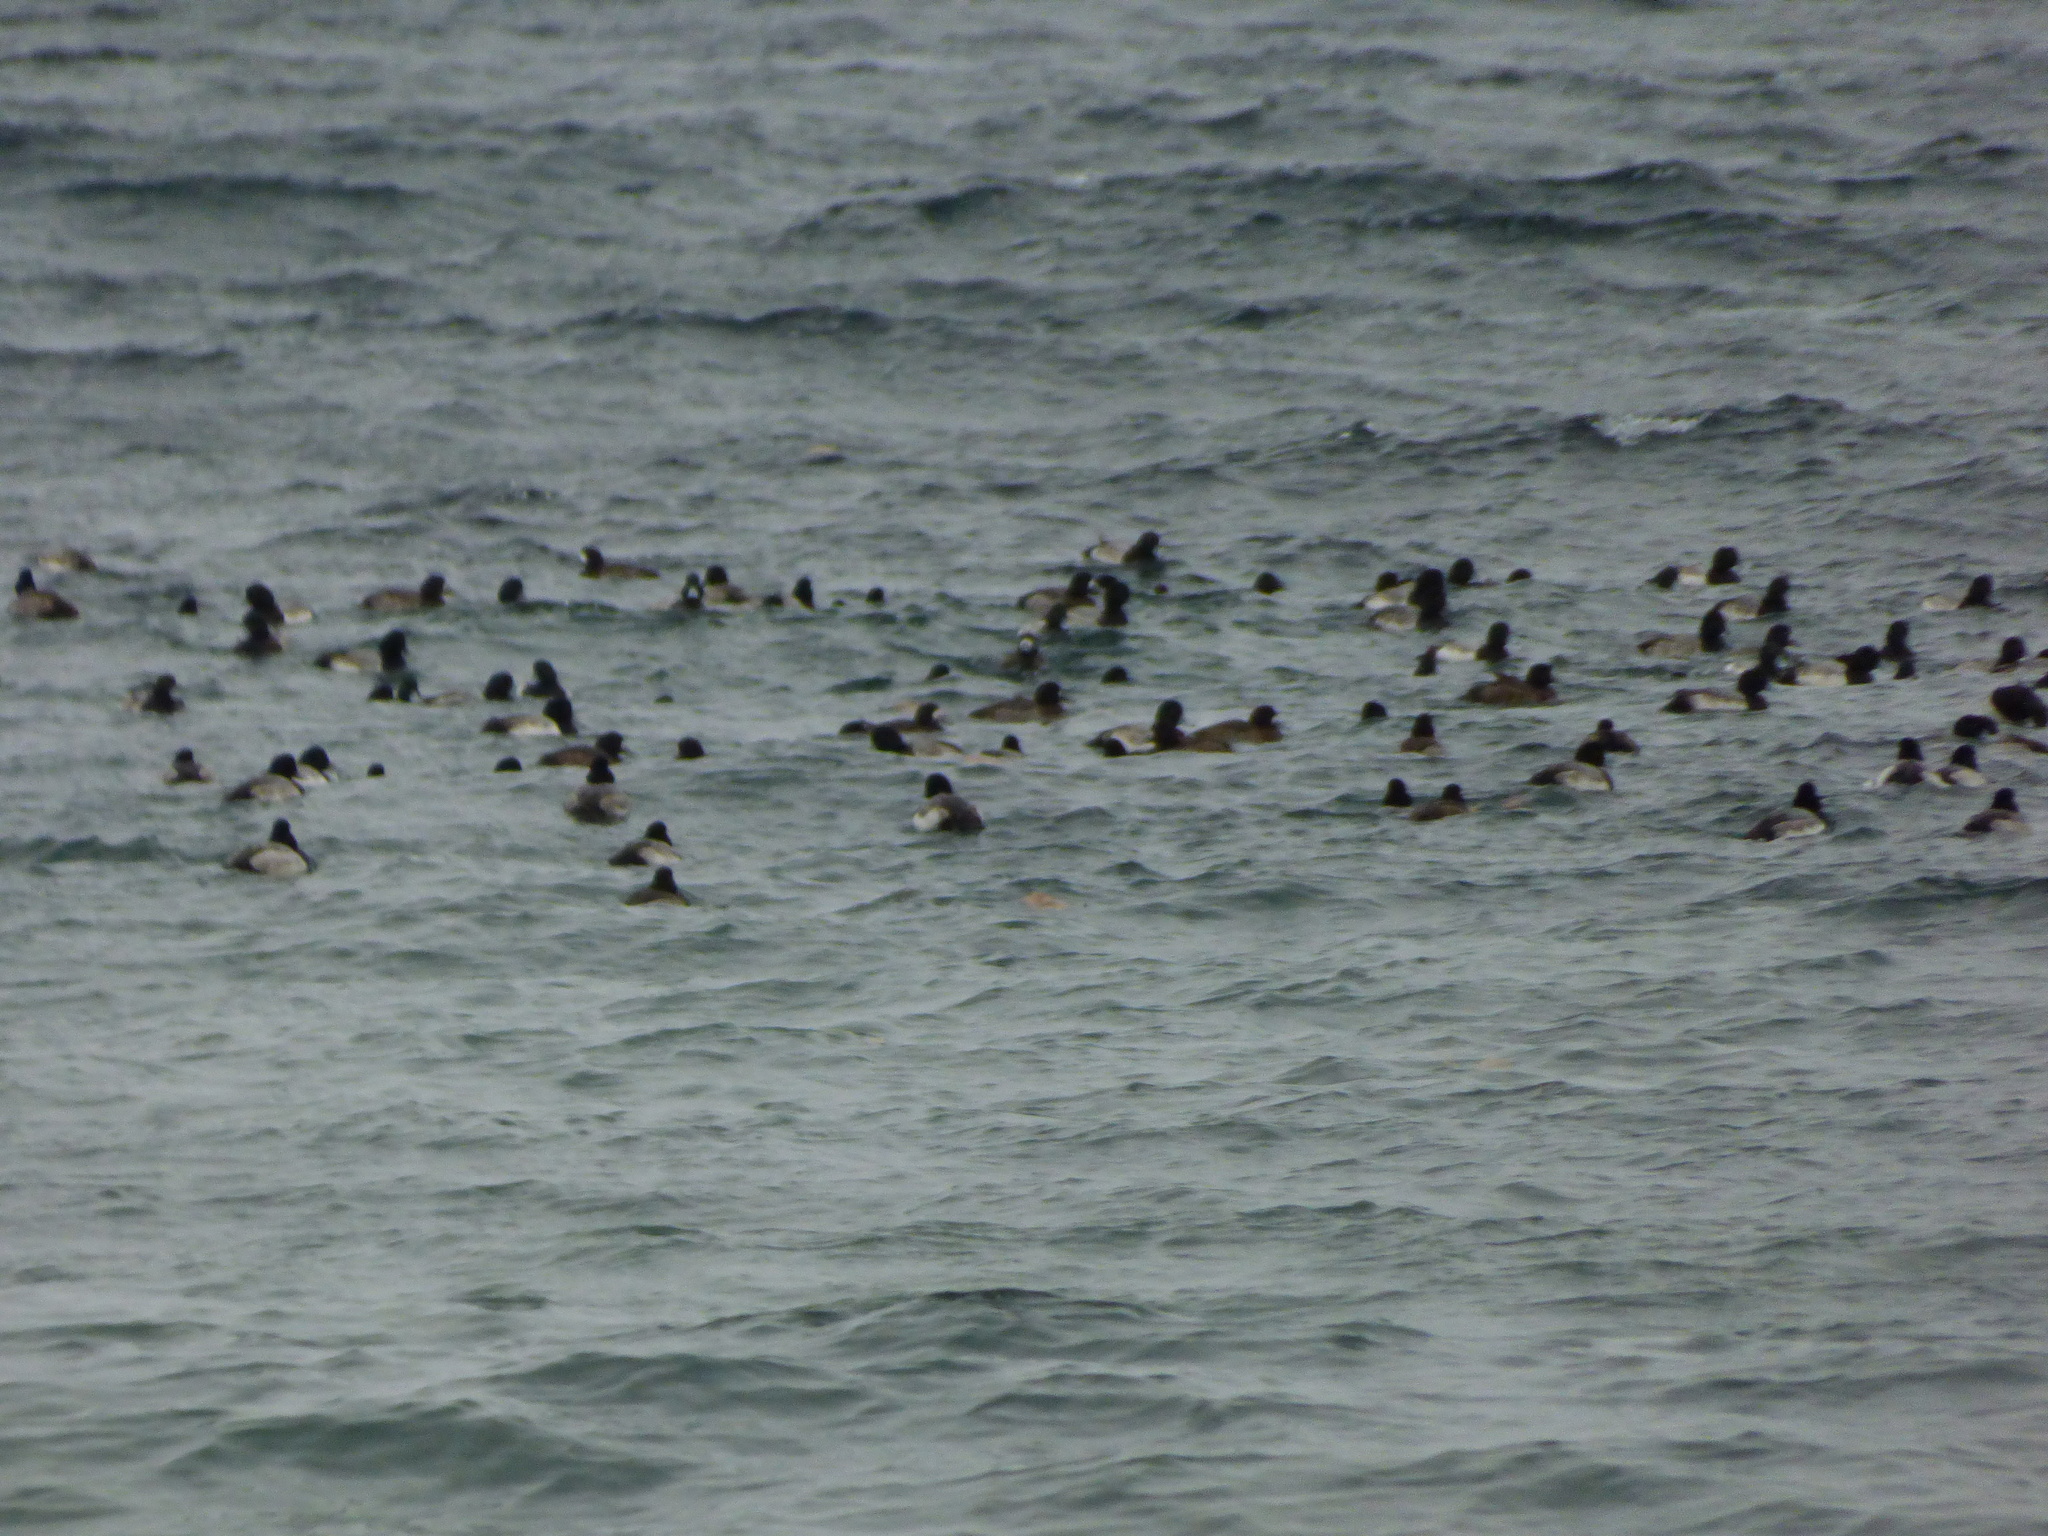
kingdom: Animalia
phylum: Chordata
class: Aves
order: Anseriformes
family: Anatidae
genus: Aythya
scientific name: Aythya marila
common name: Greater scaup
